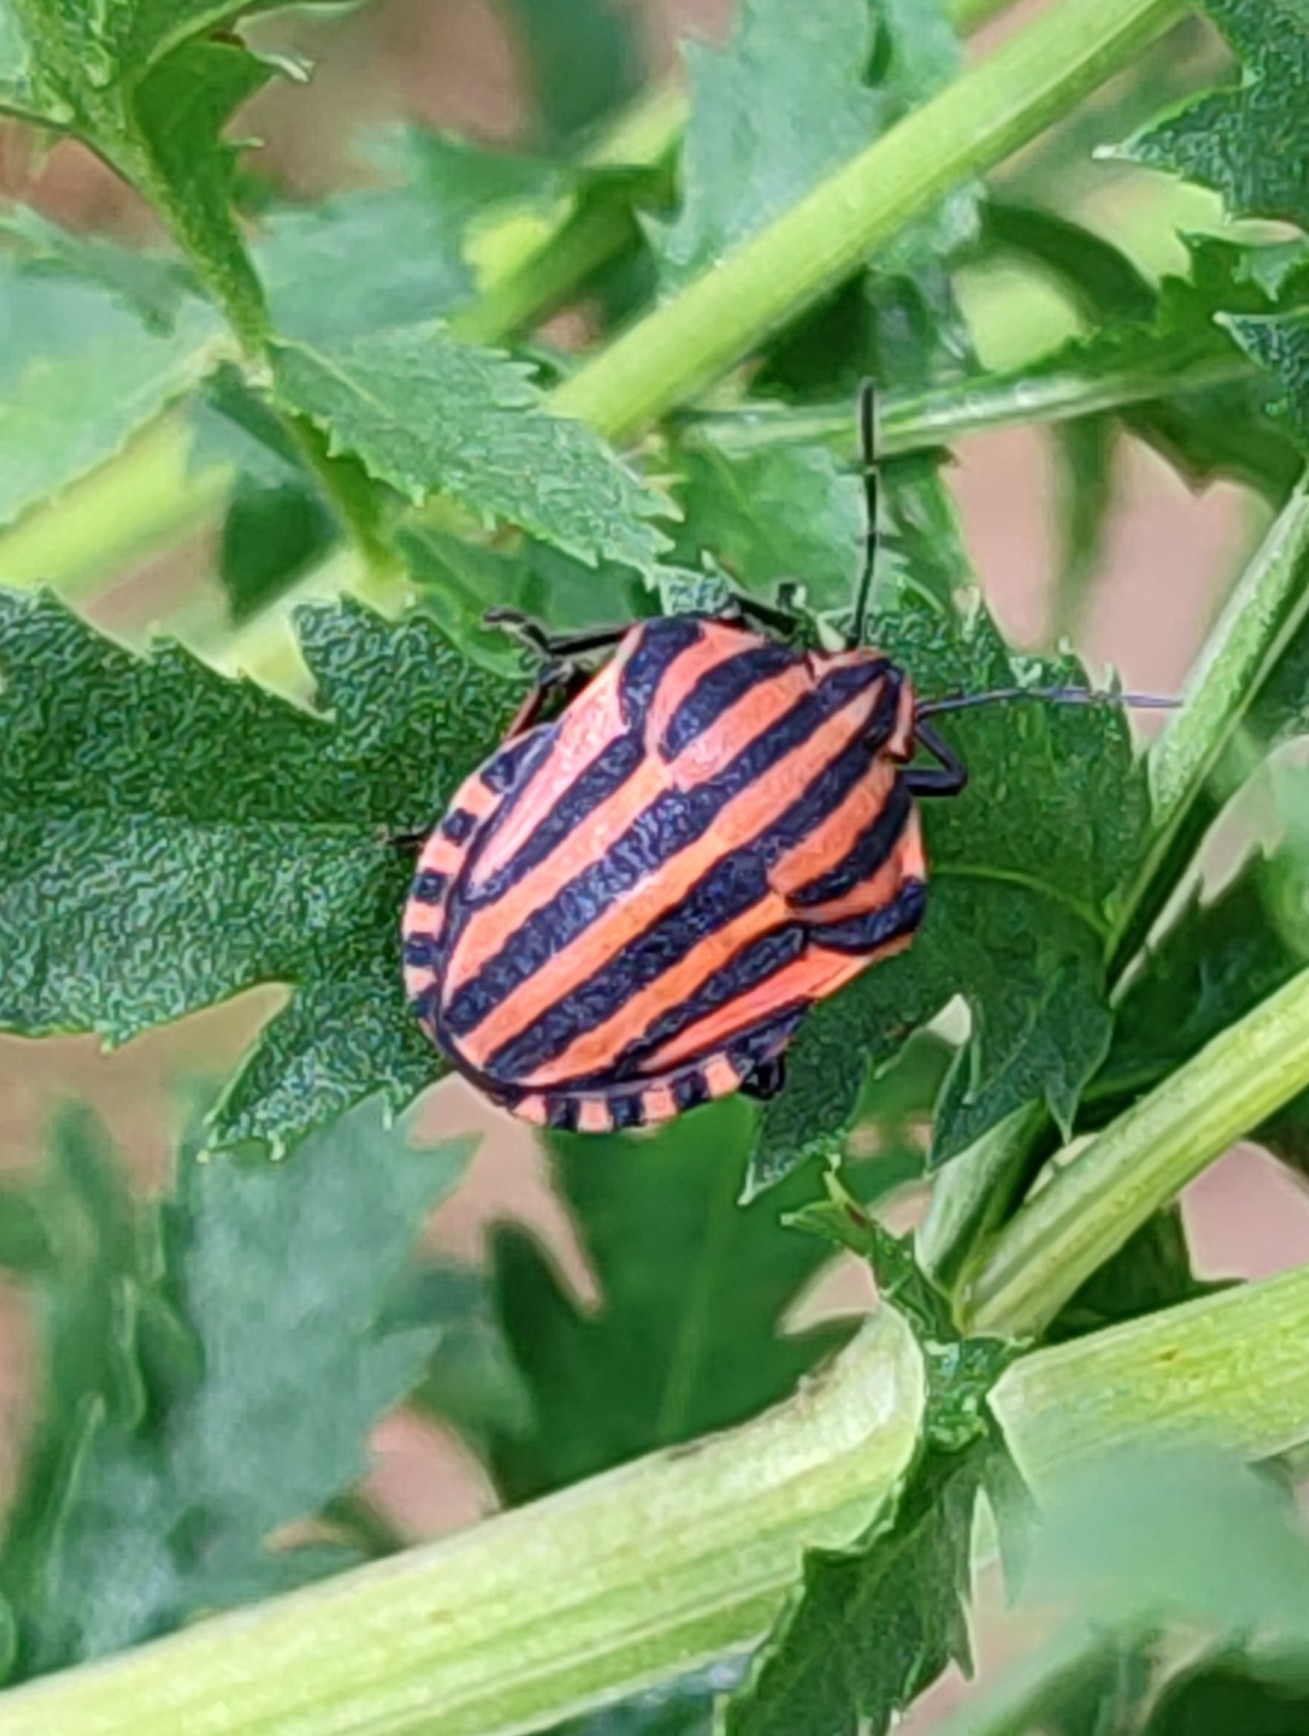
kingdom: Animalia
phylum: Arthropoda
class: Insecta
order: Hemiptera
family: Pentatomidae
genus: Graphosoma
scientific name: Graphosoma italicum
